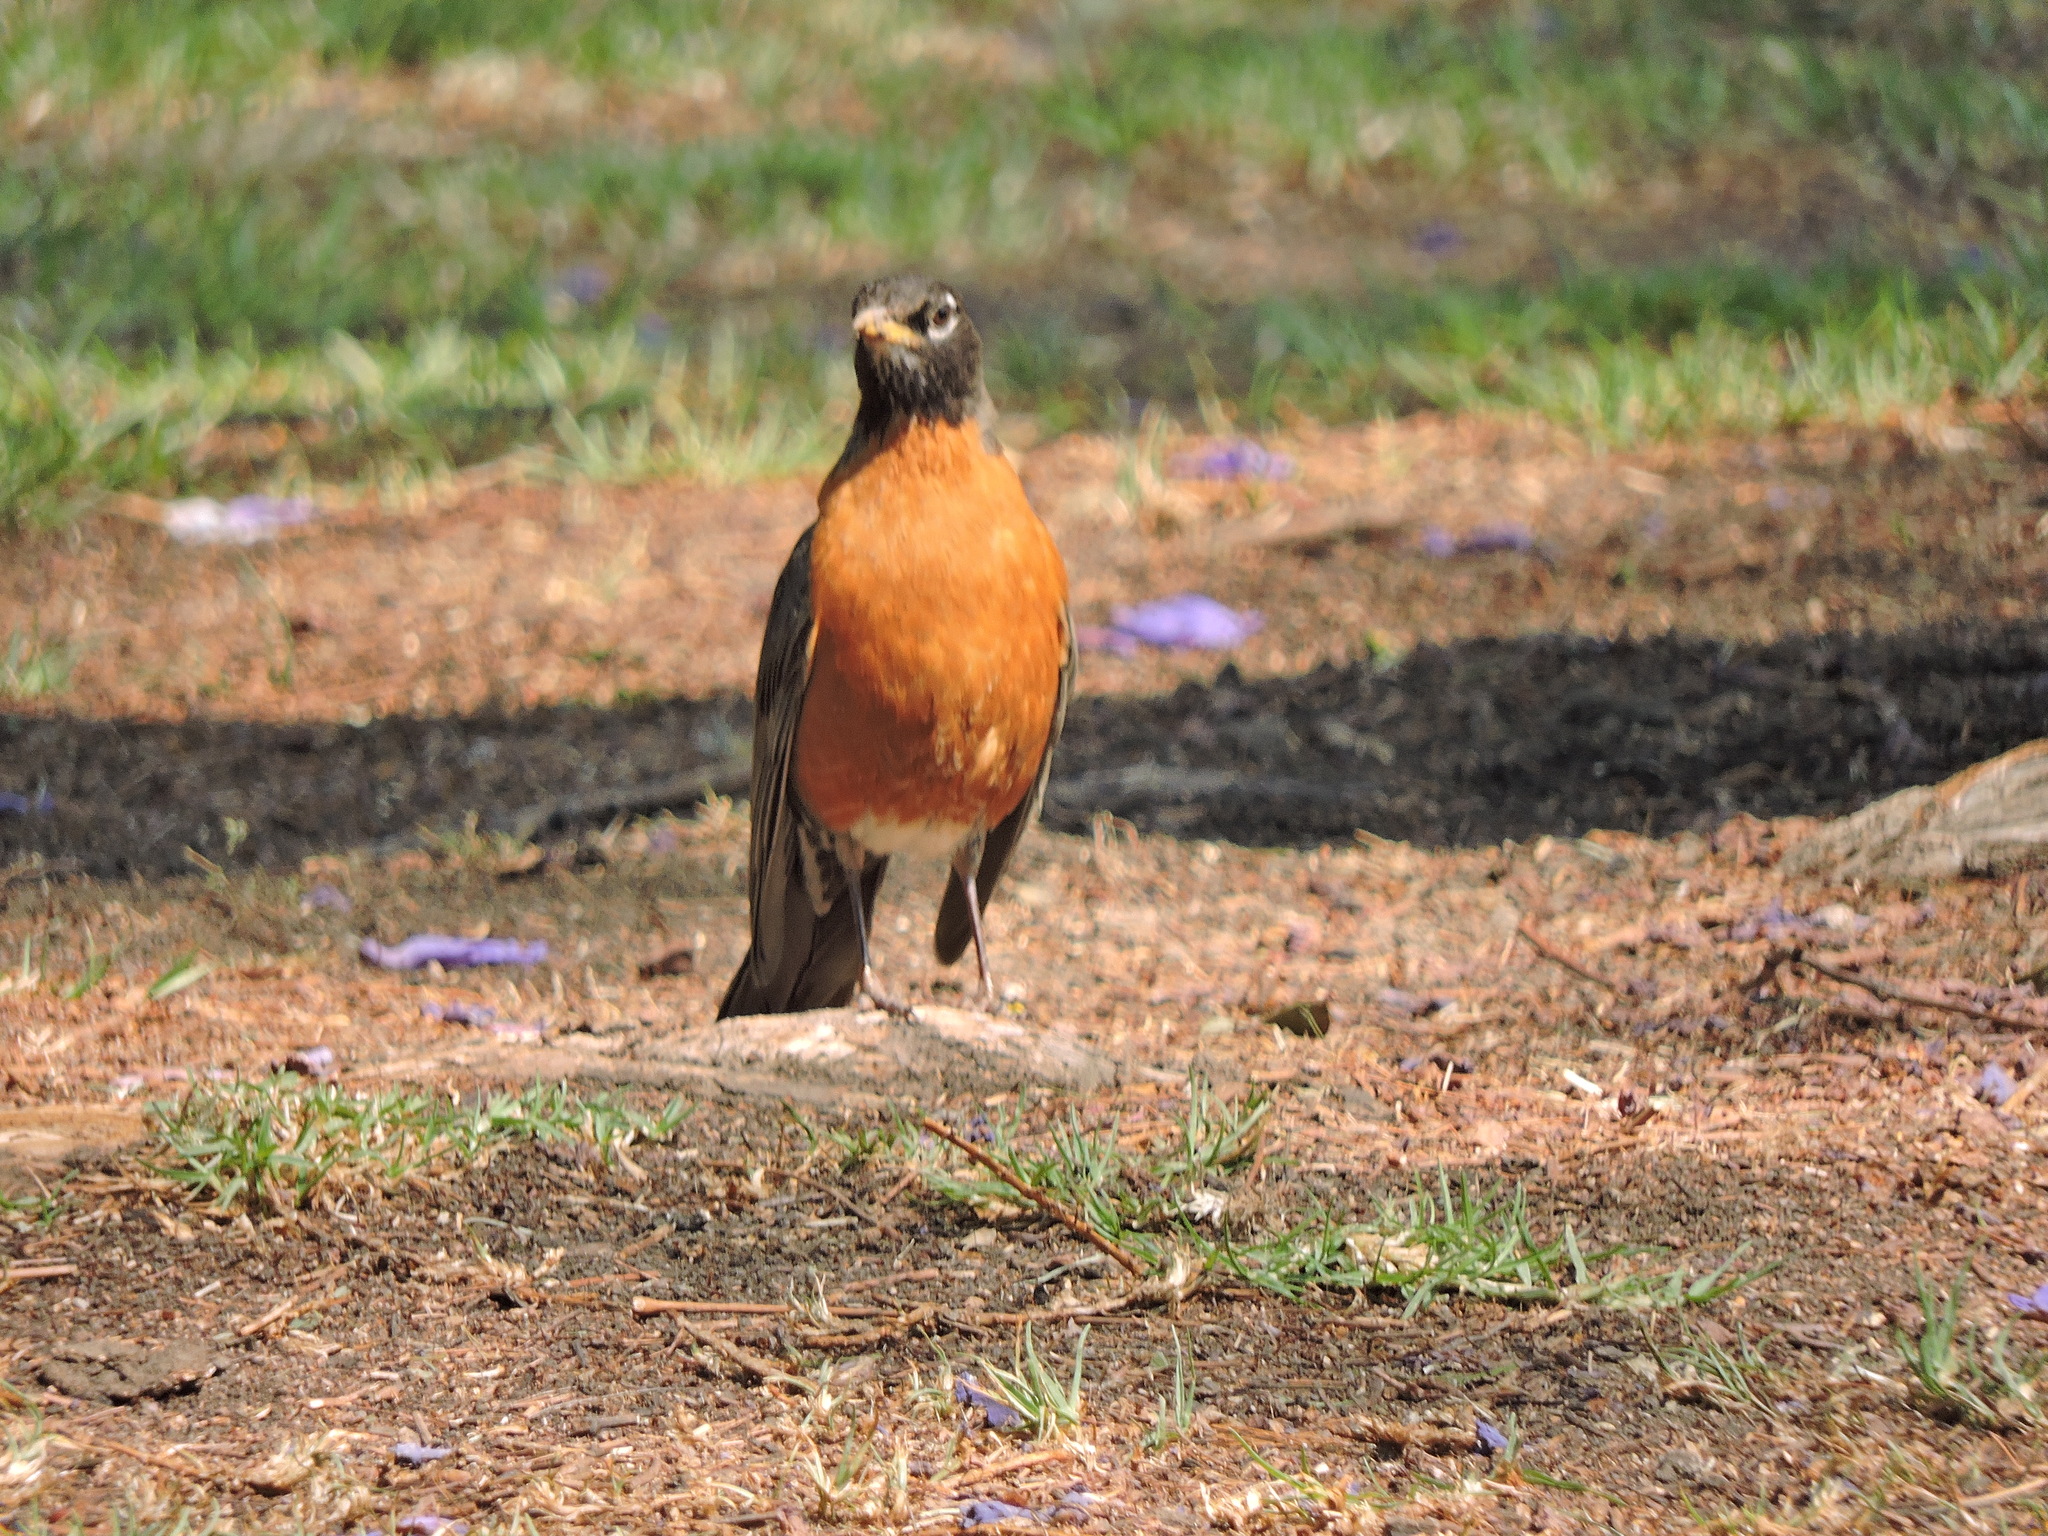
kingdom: Animalia
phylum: Chordata
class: Aves
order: Passeriformes
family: Turdidae
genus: Turdus
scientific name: Turdus migratorius
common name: American robin
